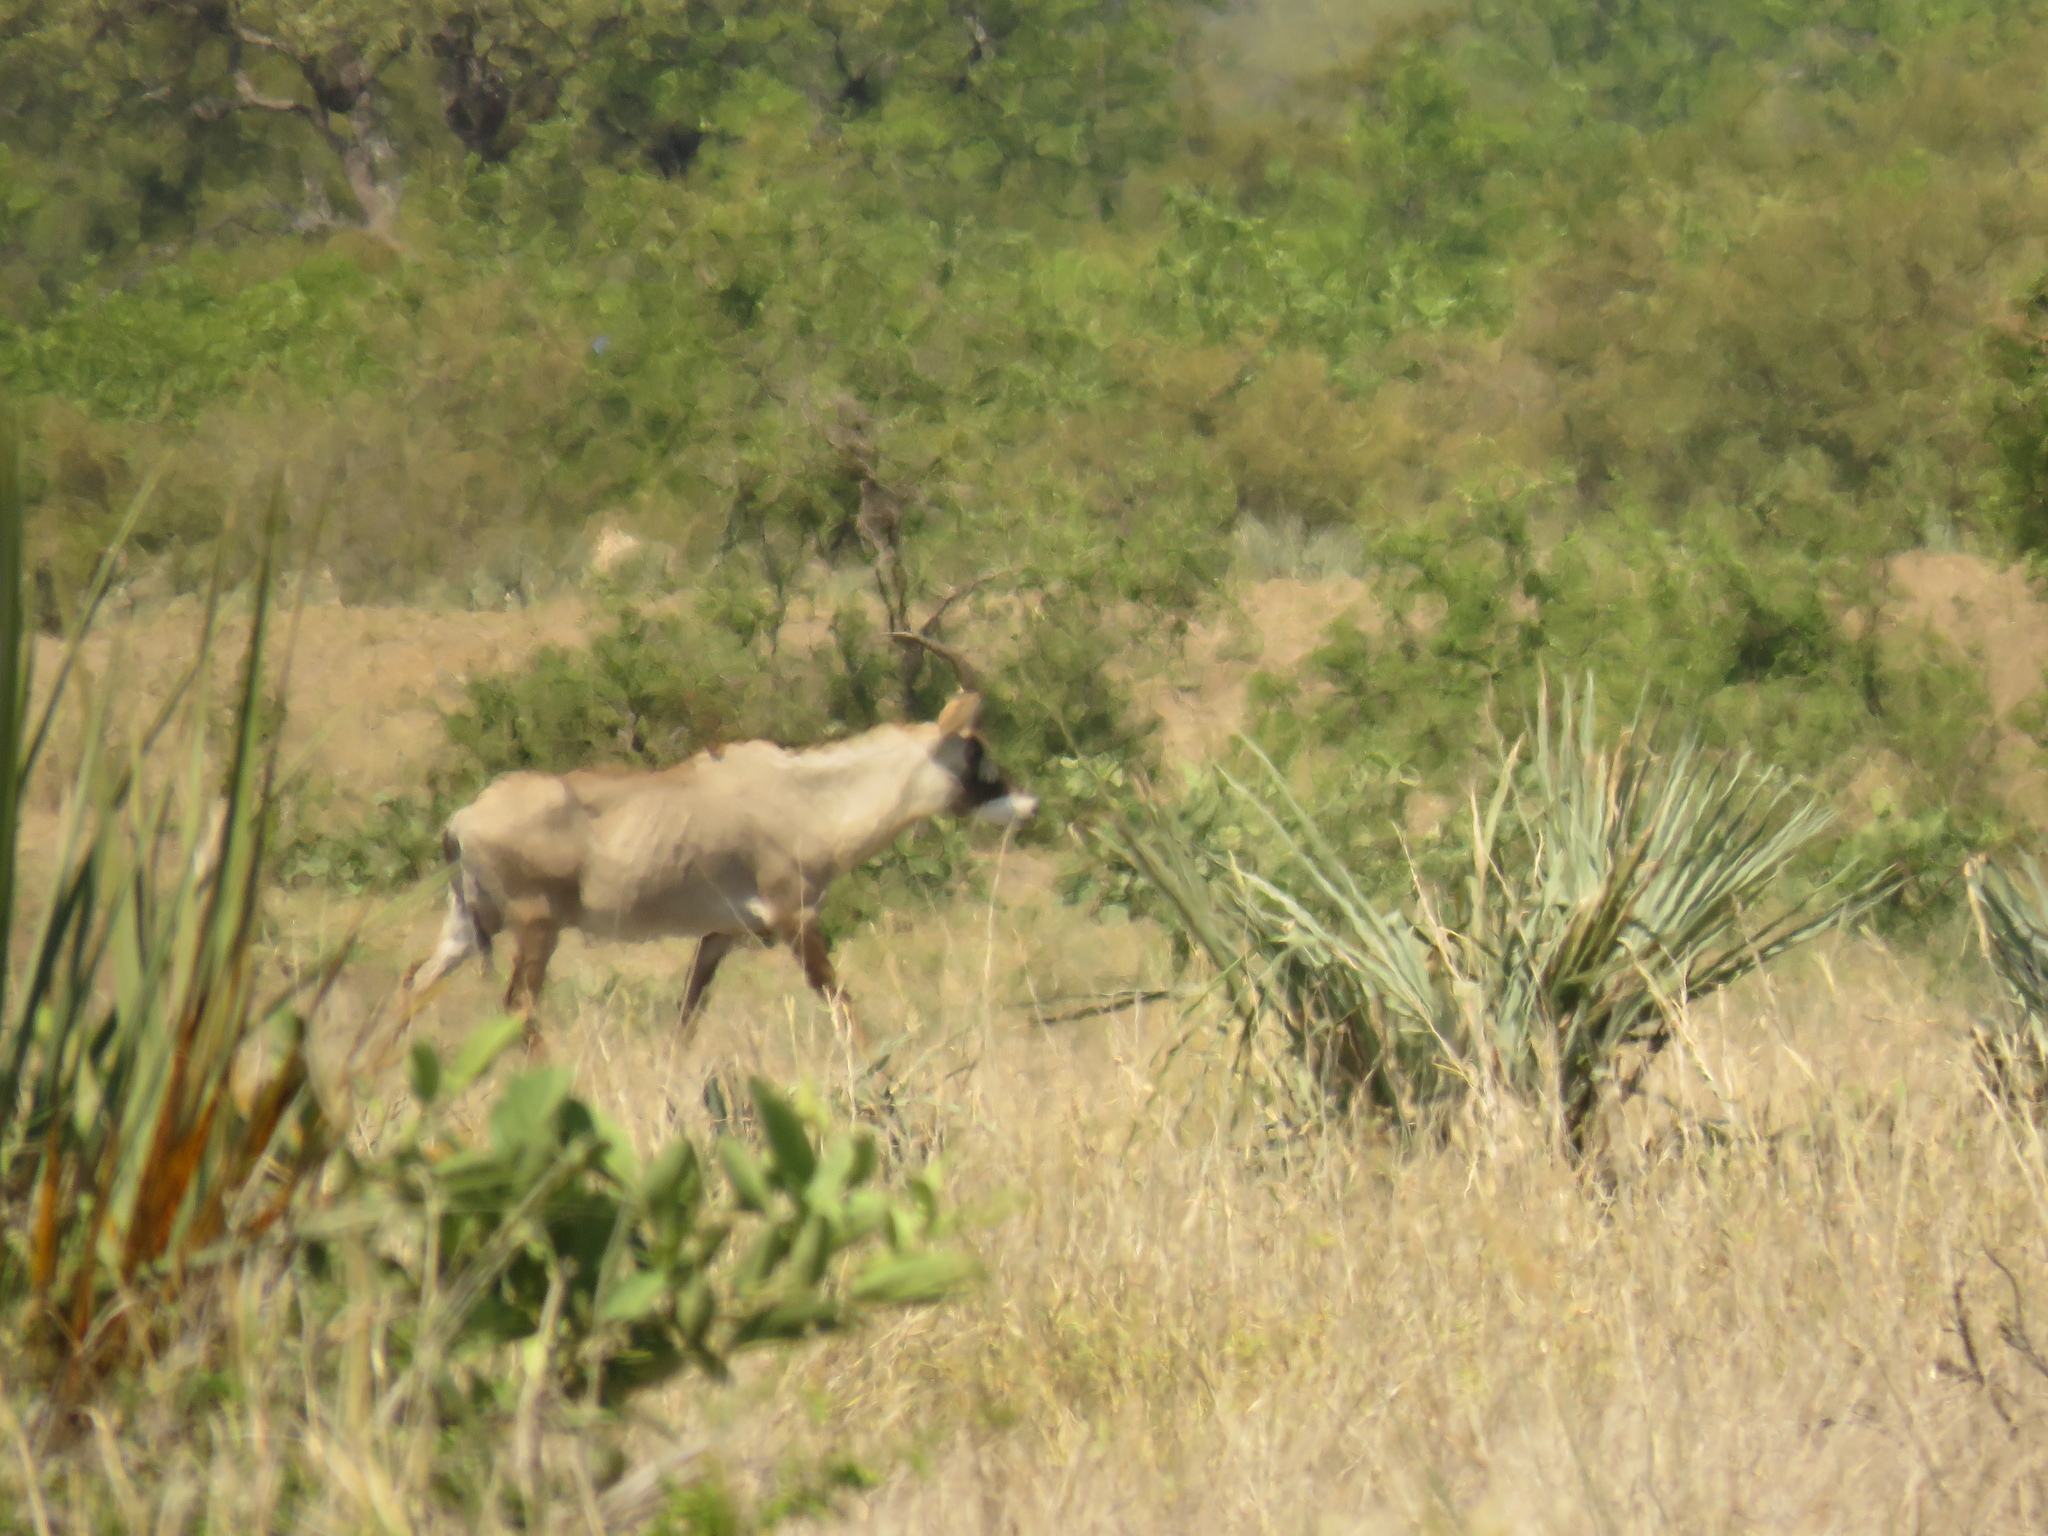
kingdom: Animalia
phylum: Chordata
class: Mammalia
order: Artiodactyla
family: Bovidae
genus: Hippotragus
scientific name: Hippotragus equinus
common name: Roan antelope
